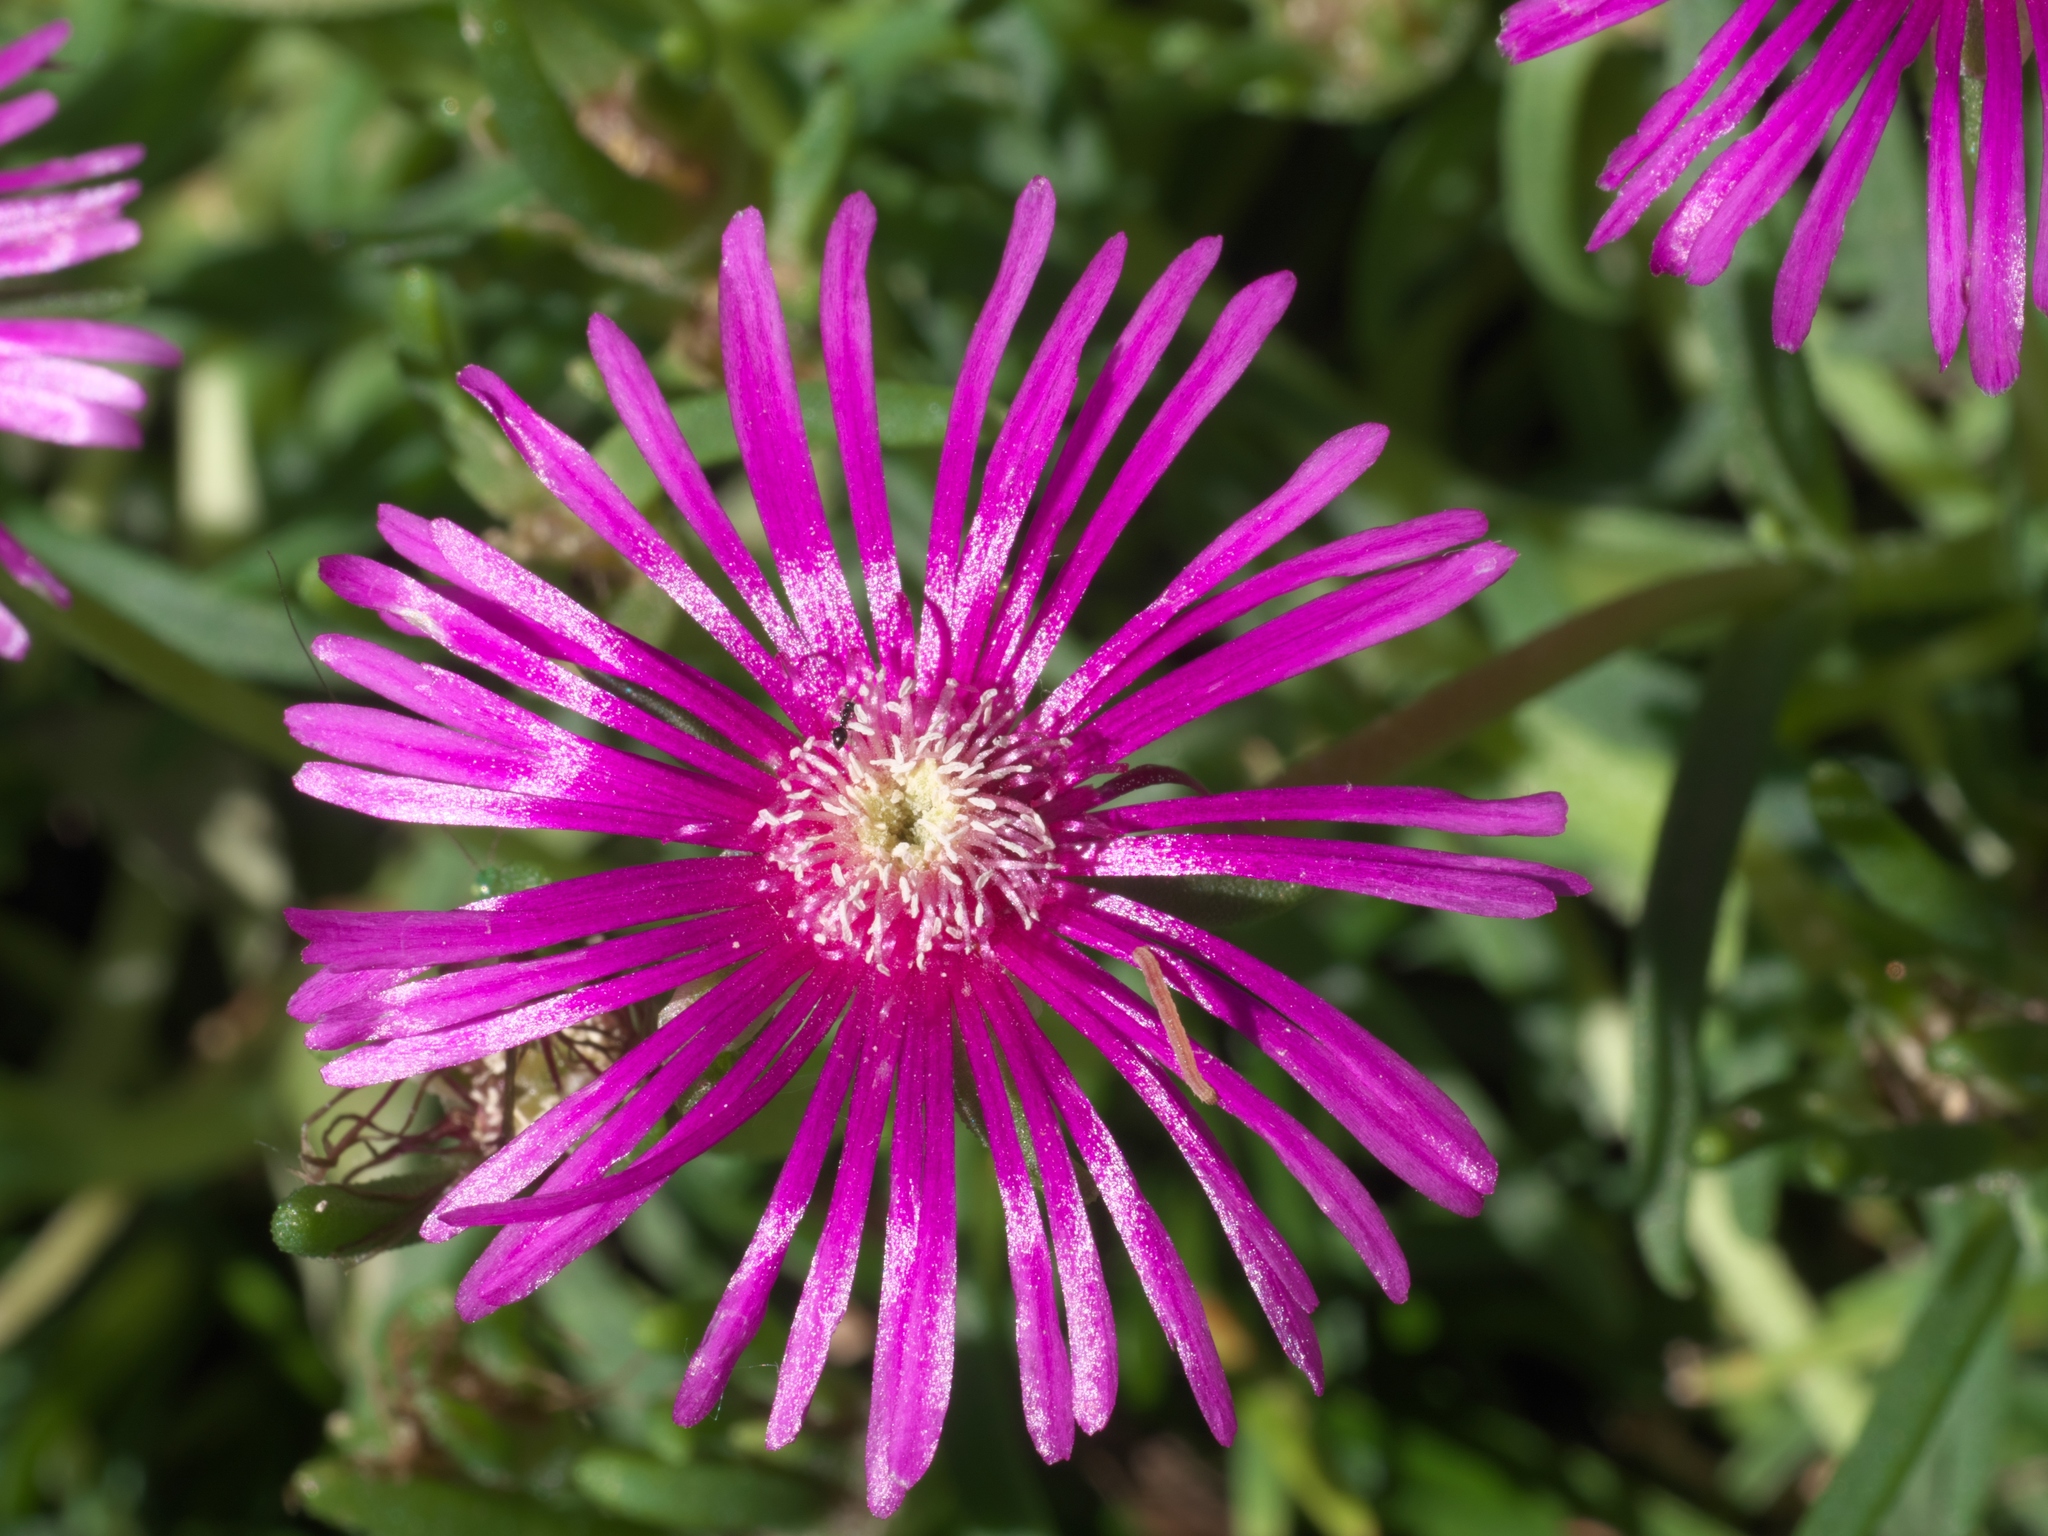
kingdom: Animalia
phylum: Arthropoda
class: Insecta
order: Hymenoptera
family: Formicidae
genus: Prenolepis
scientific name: Prenolepis imparis
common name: Small honey ant
